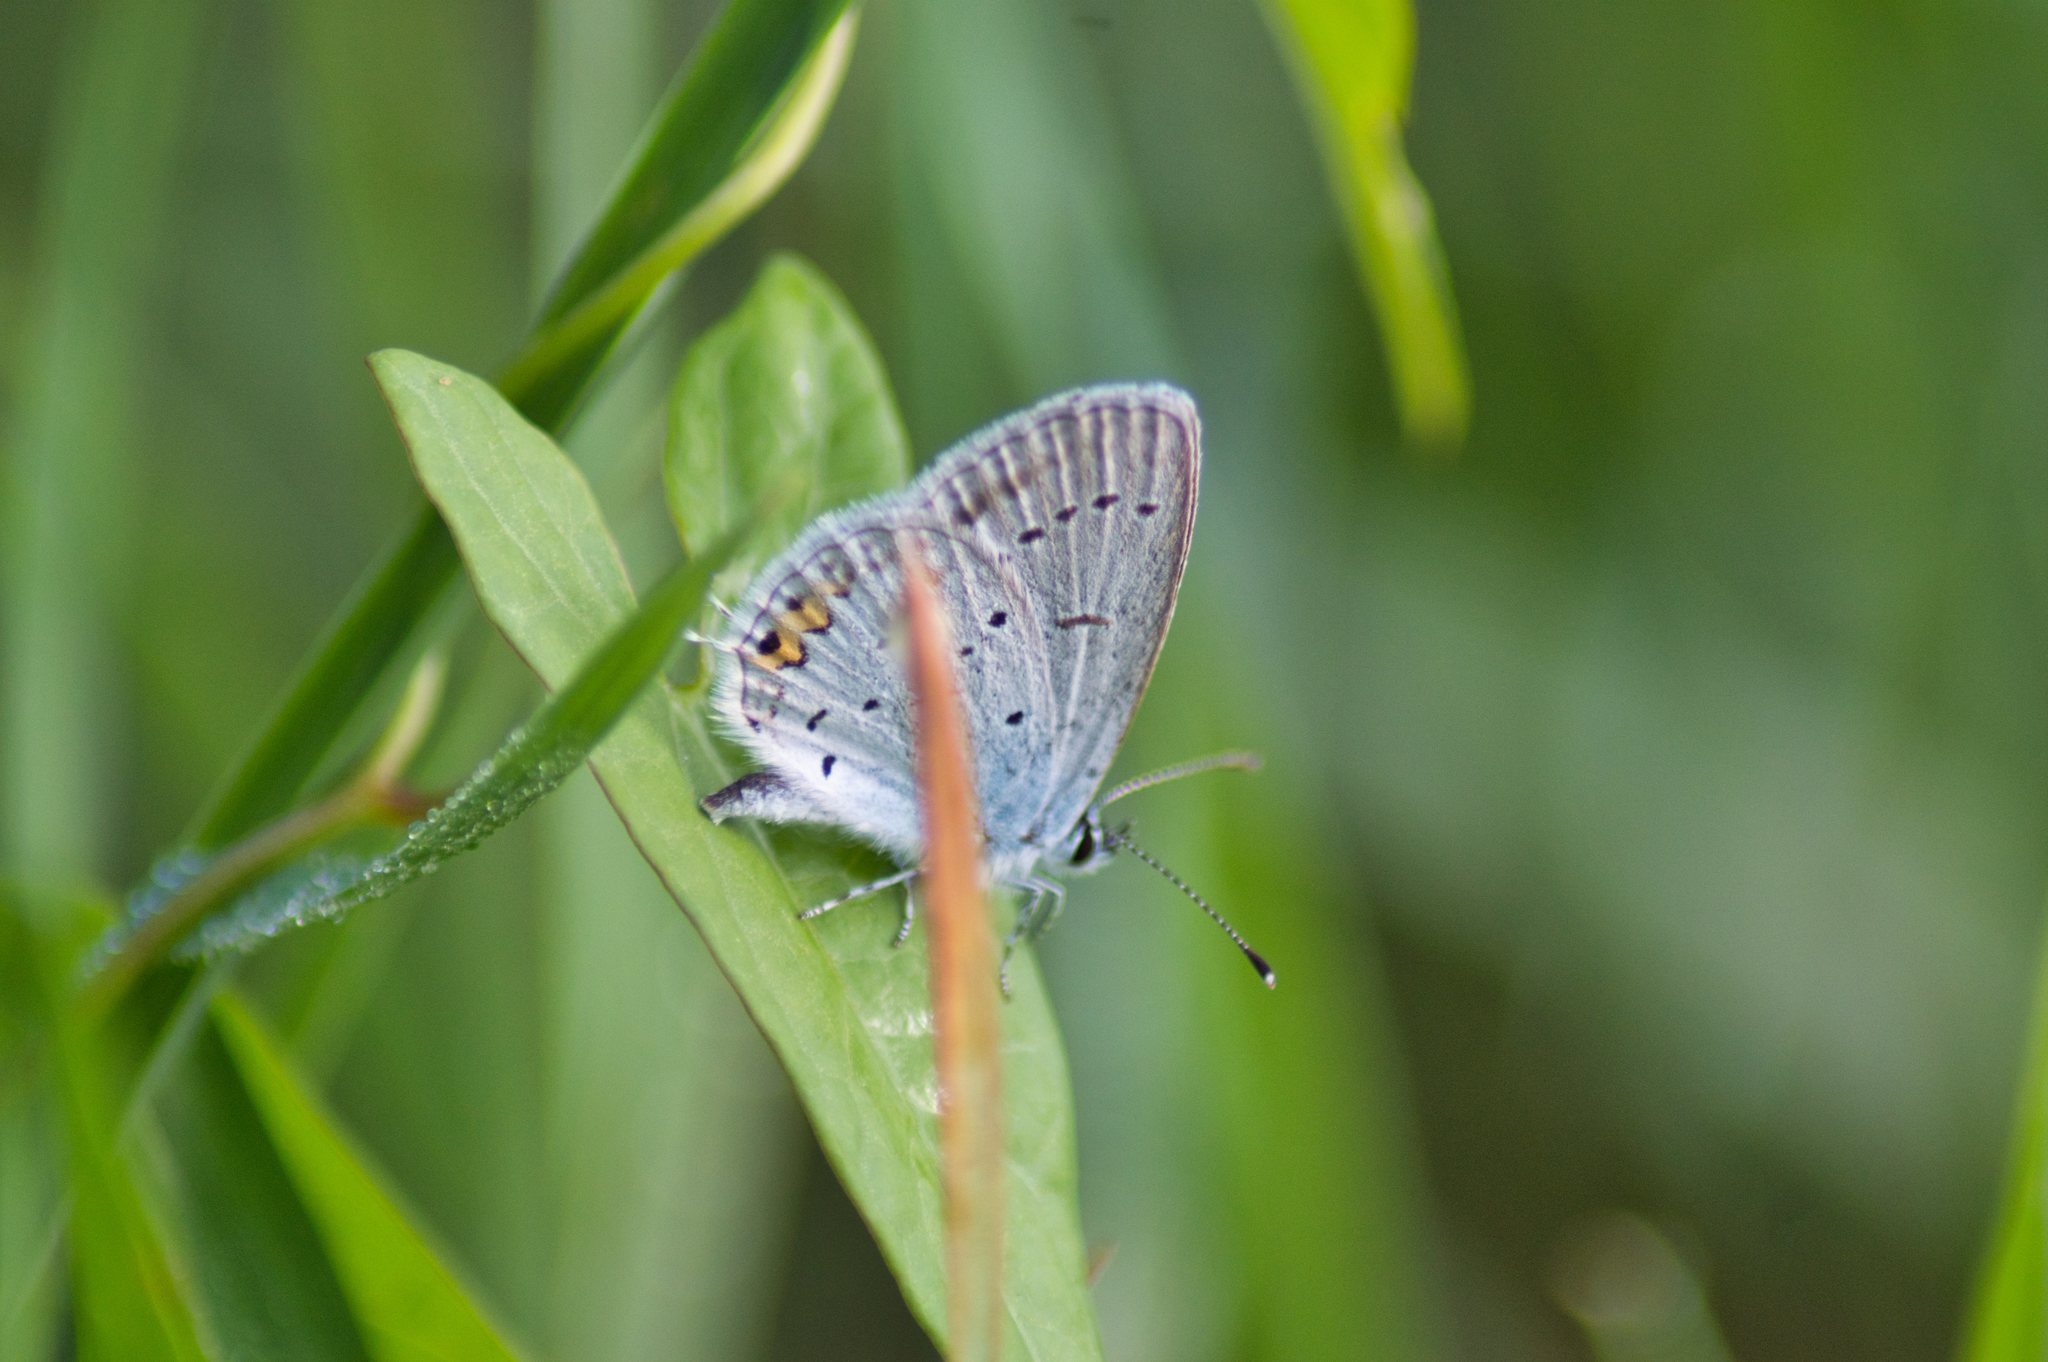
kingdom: Animalia
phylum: Arthropoda
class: Insecta
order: Lepidoptera
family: Lycaenidae
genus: Elkalyce
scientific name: Elkalyce argiades
